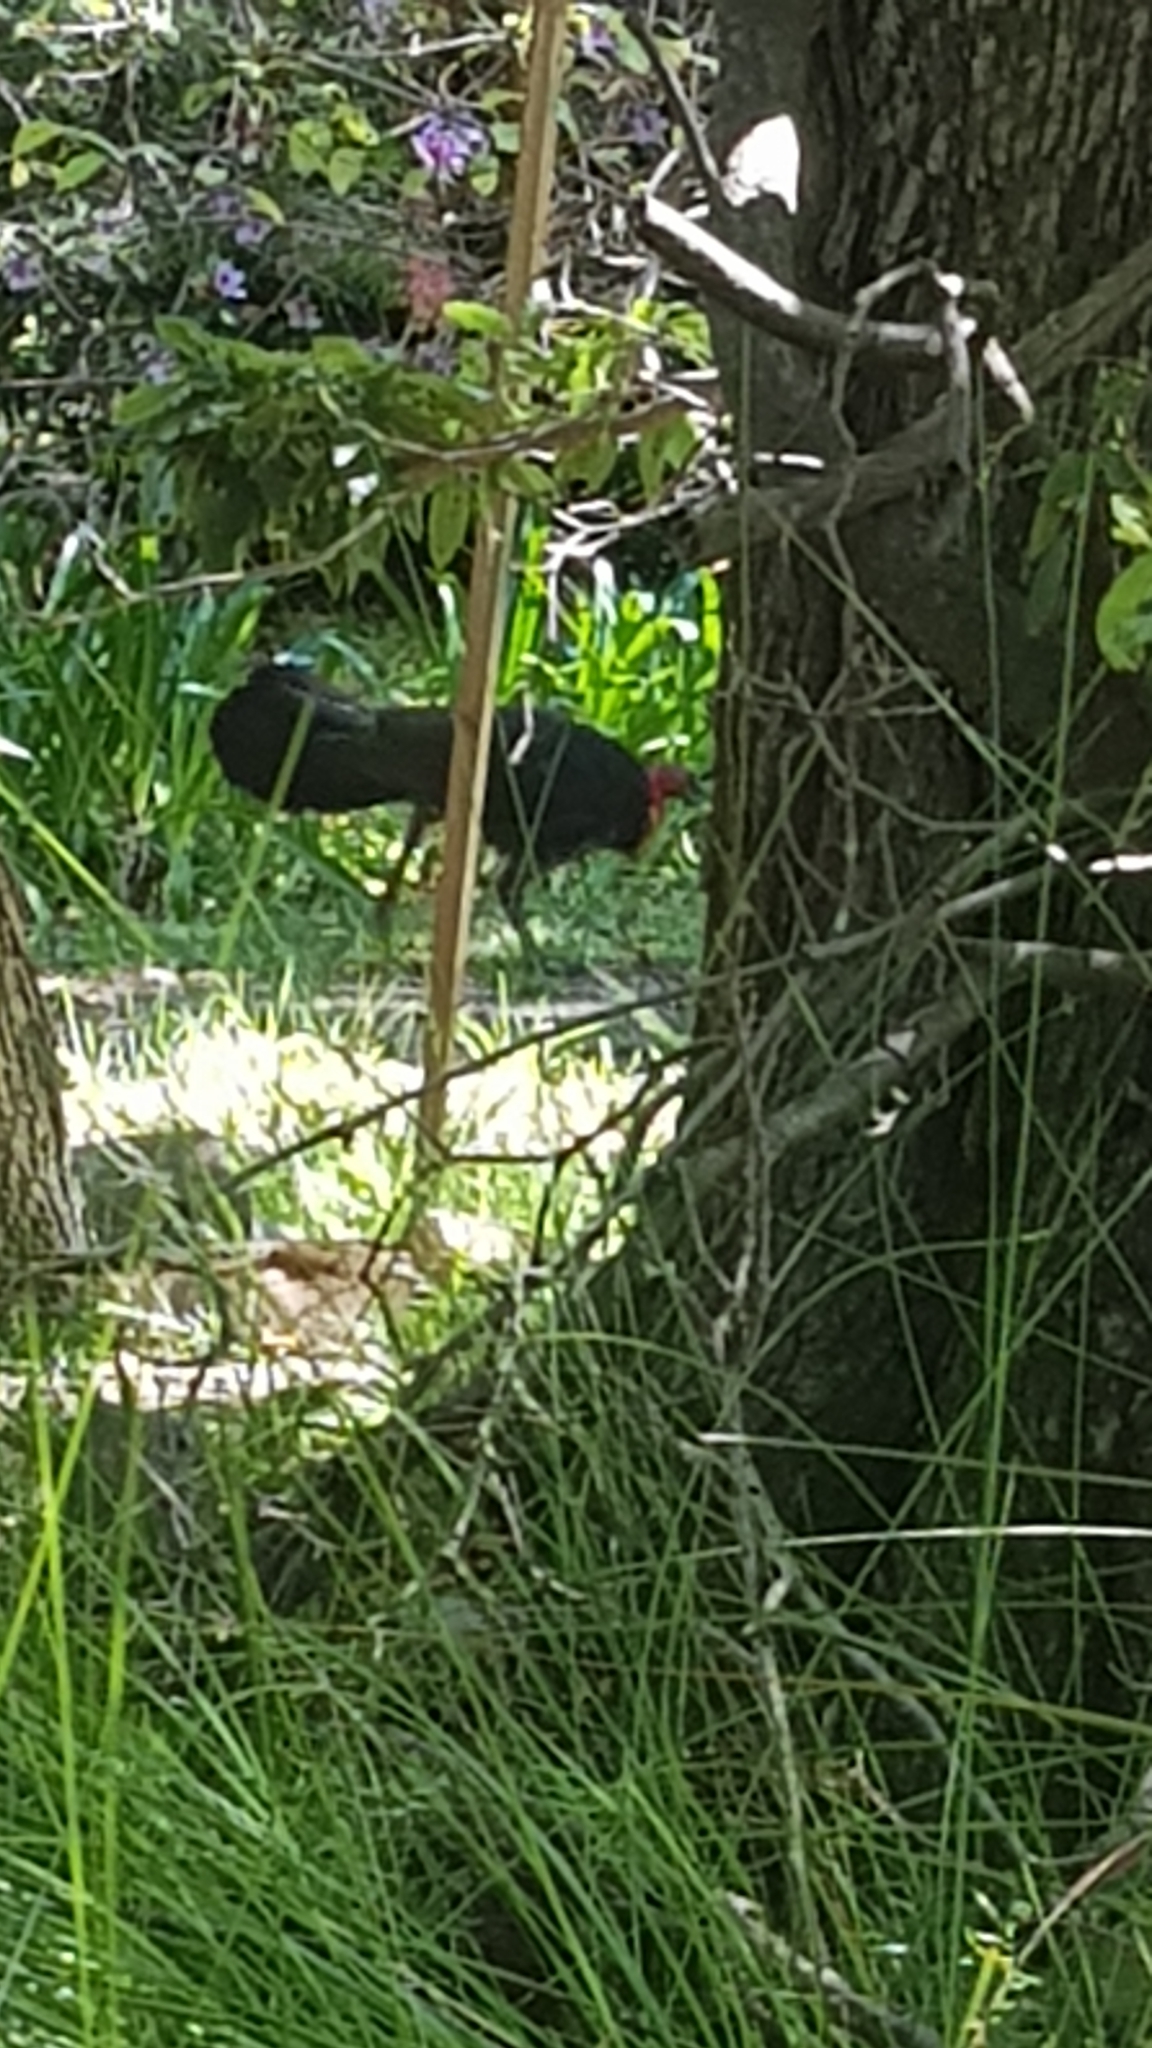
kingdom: Animalia
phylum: Chordata
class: Aves
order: Galliformes
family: Megapodiidae
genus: Alectura
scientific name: Alectura lathami
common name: Australian brushturkey
